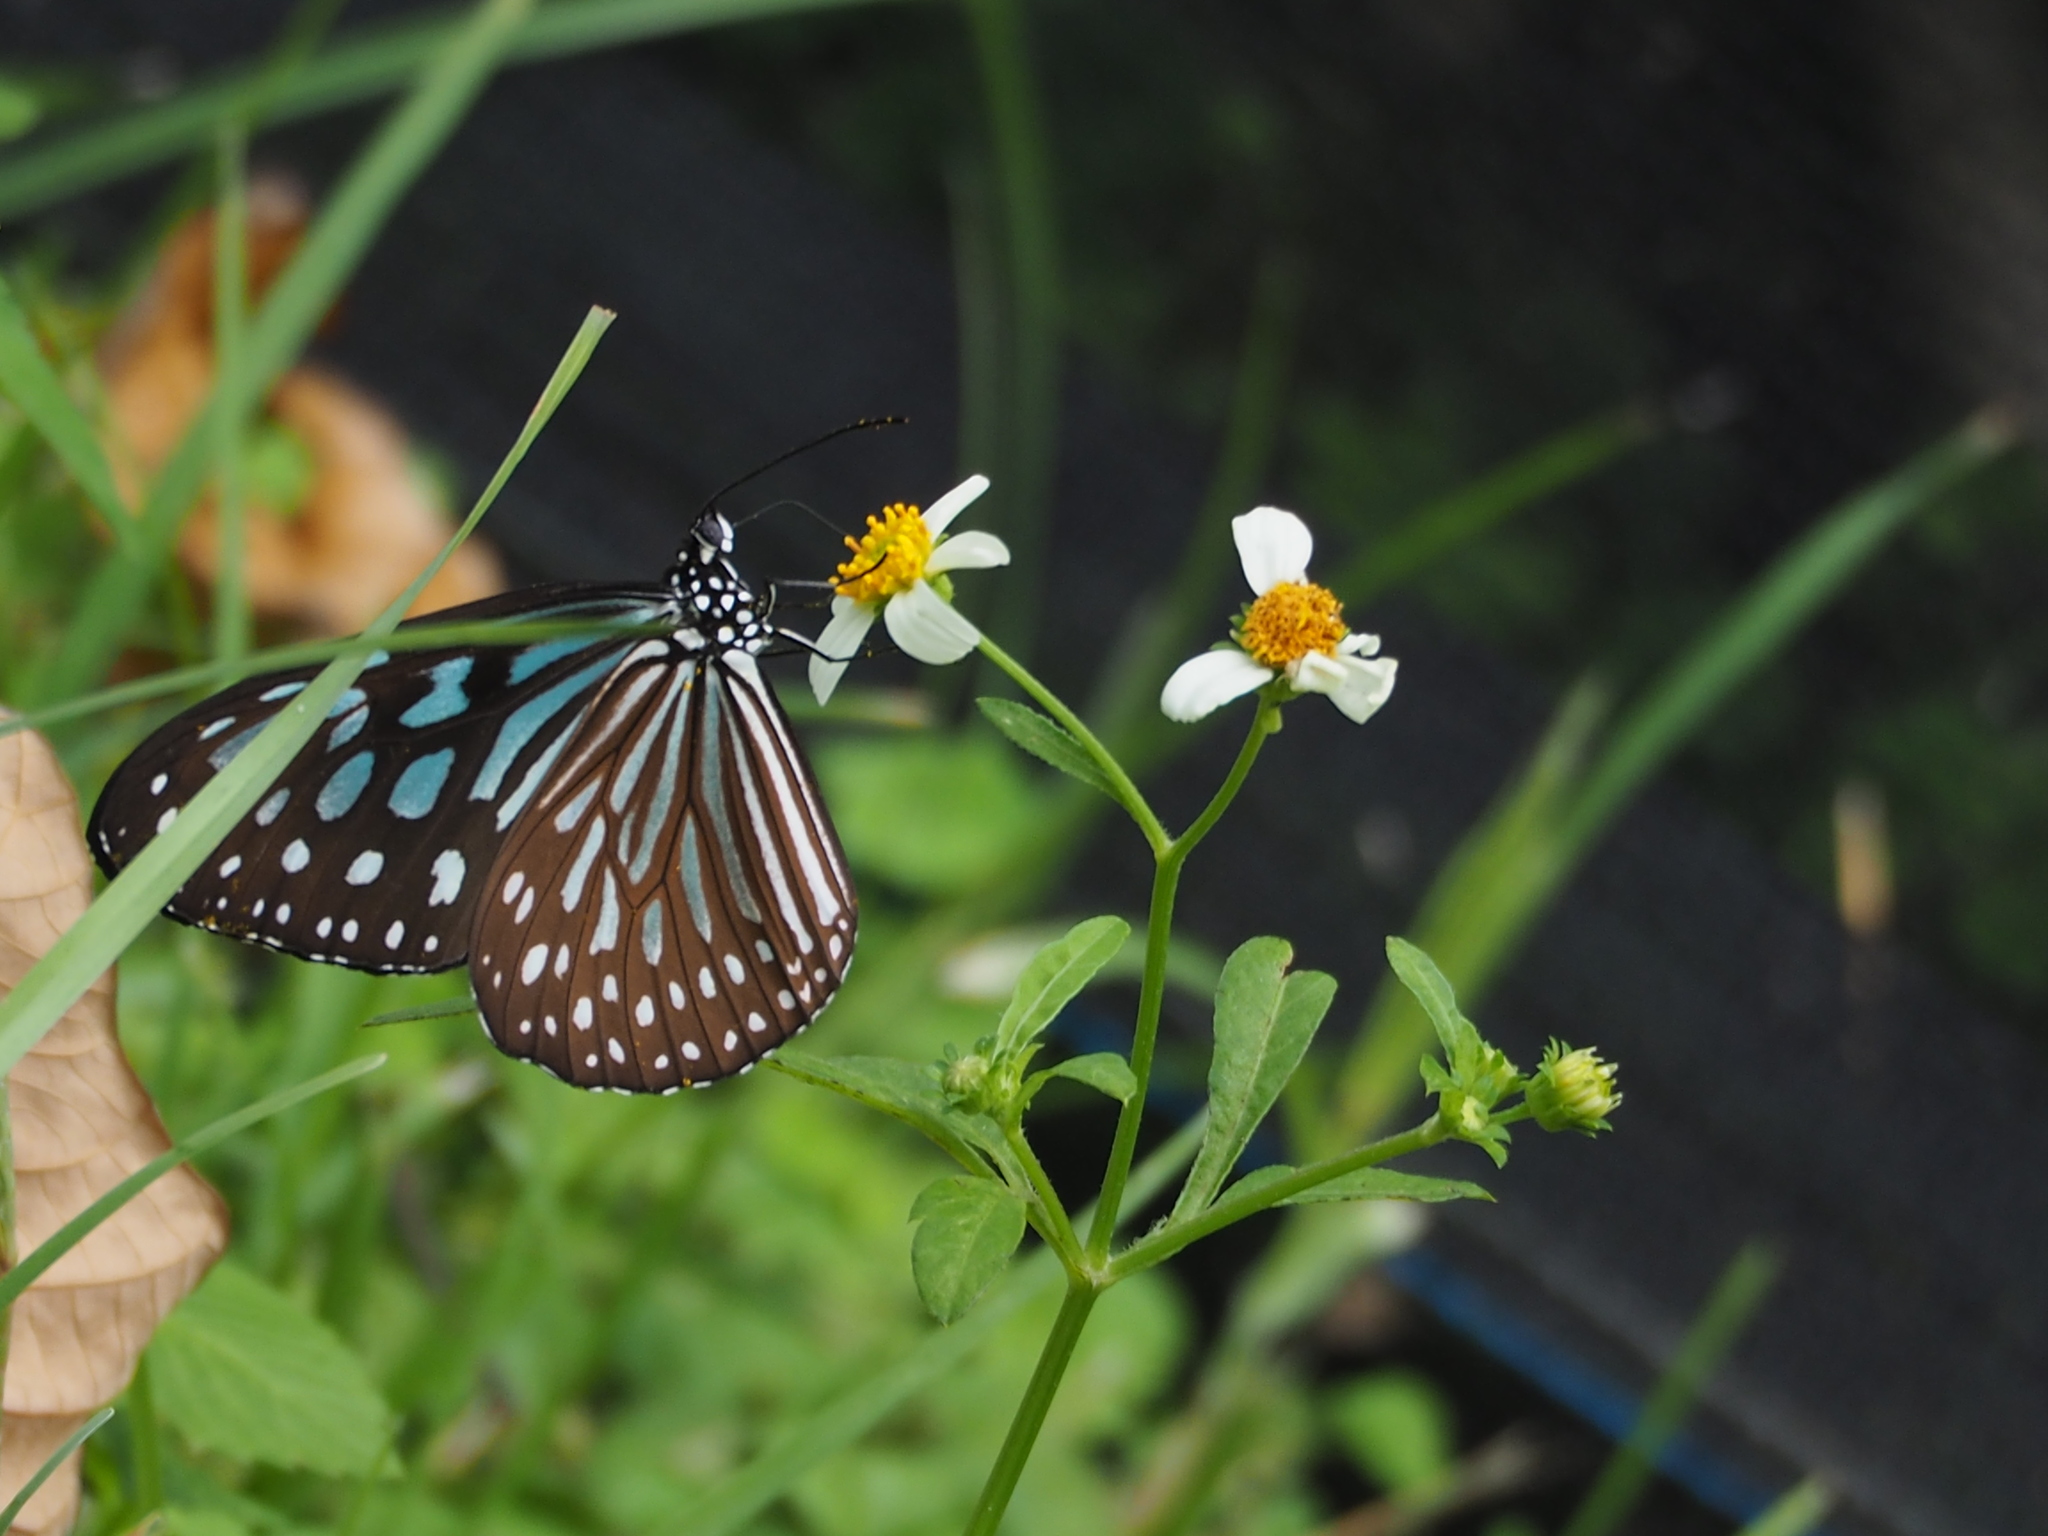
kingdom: Animalia
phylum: Arthropoda
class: Insecta
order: Lepidoptera
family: Nymphalidae
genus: Ideopsis
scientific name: Ideopsis similis
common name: Ceylon blue glassy tiger
